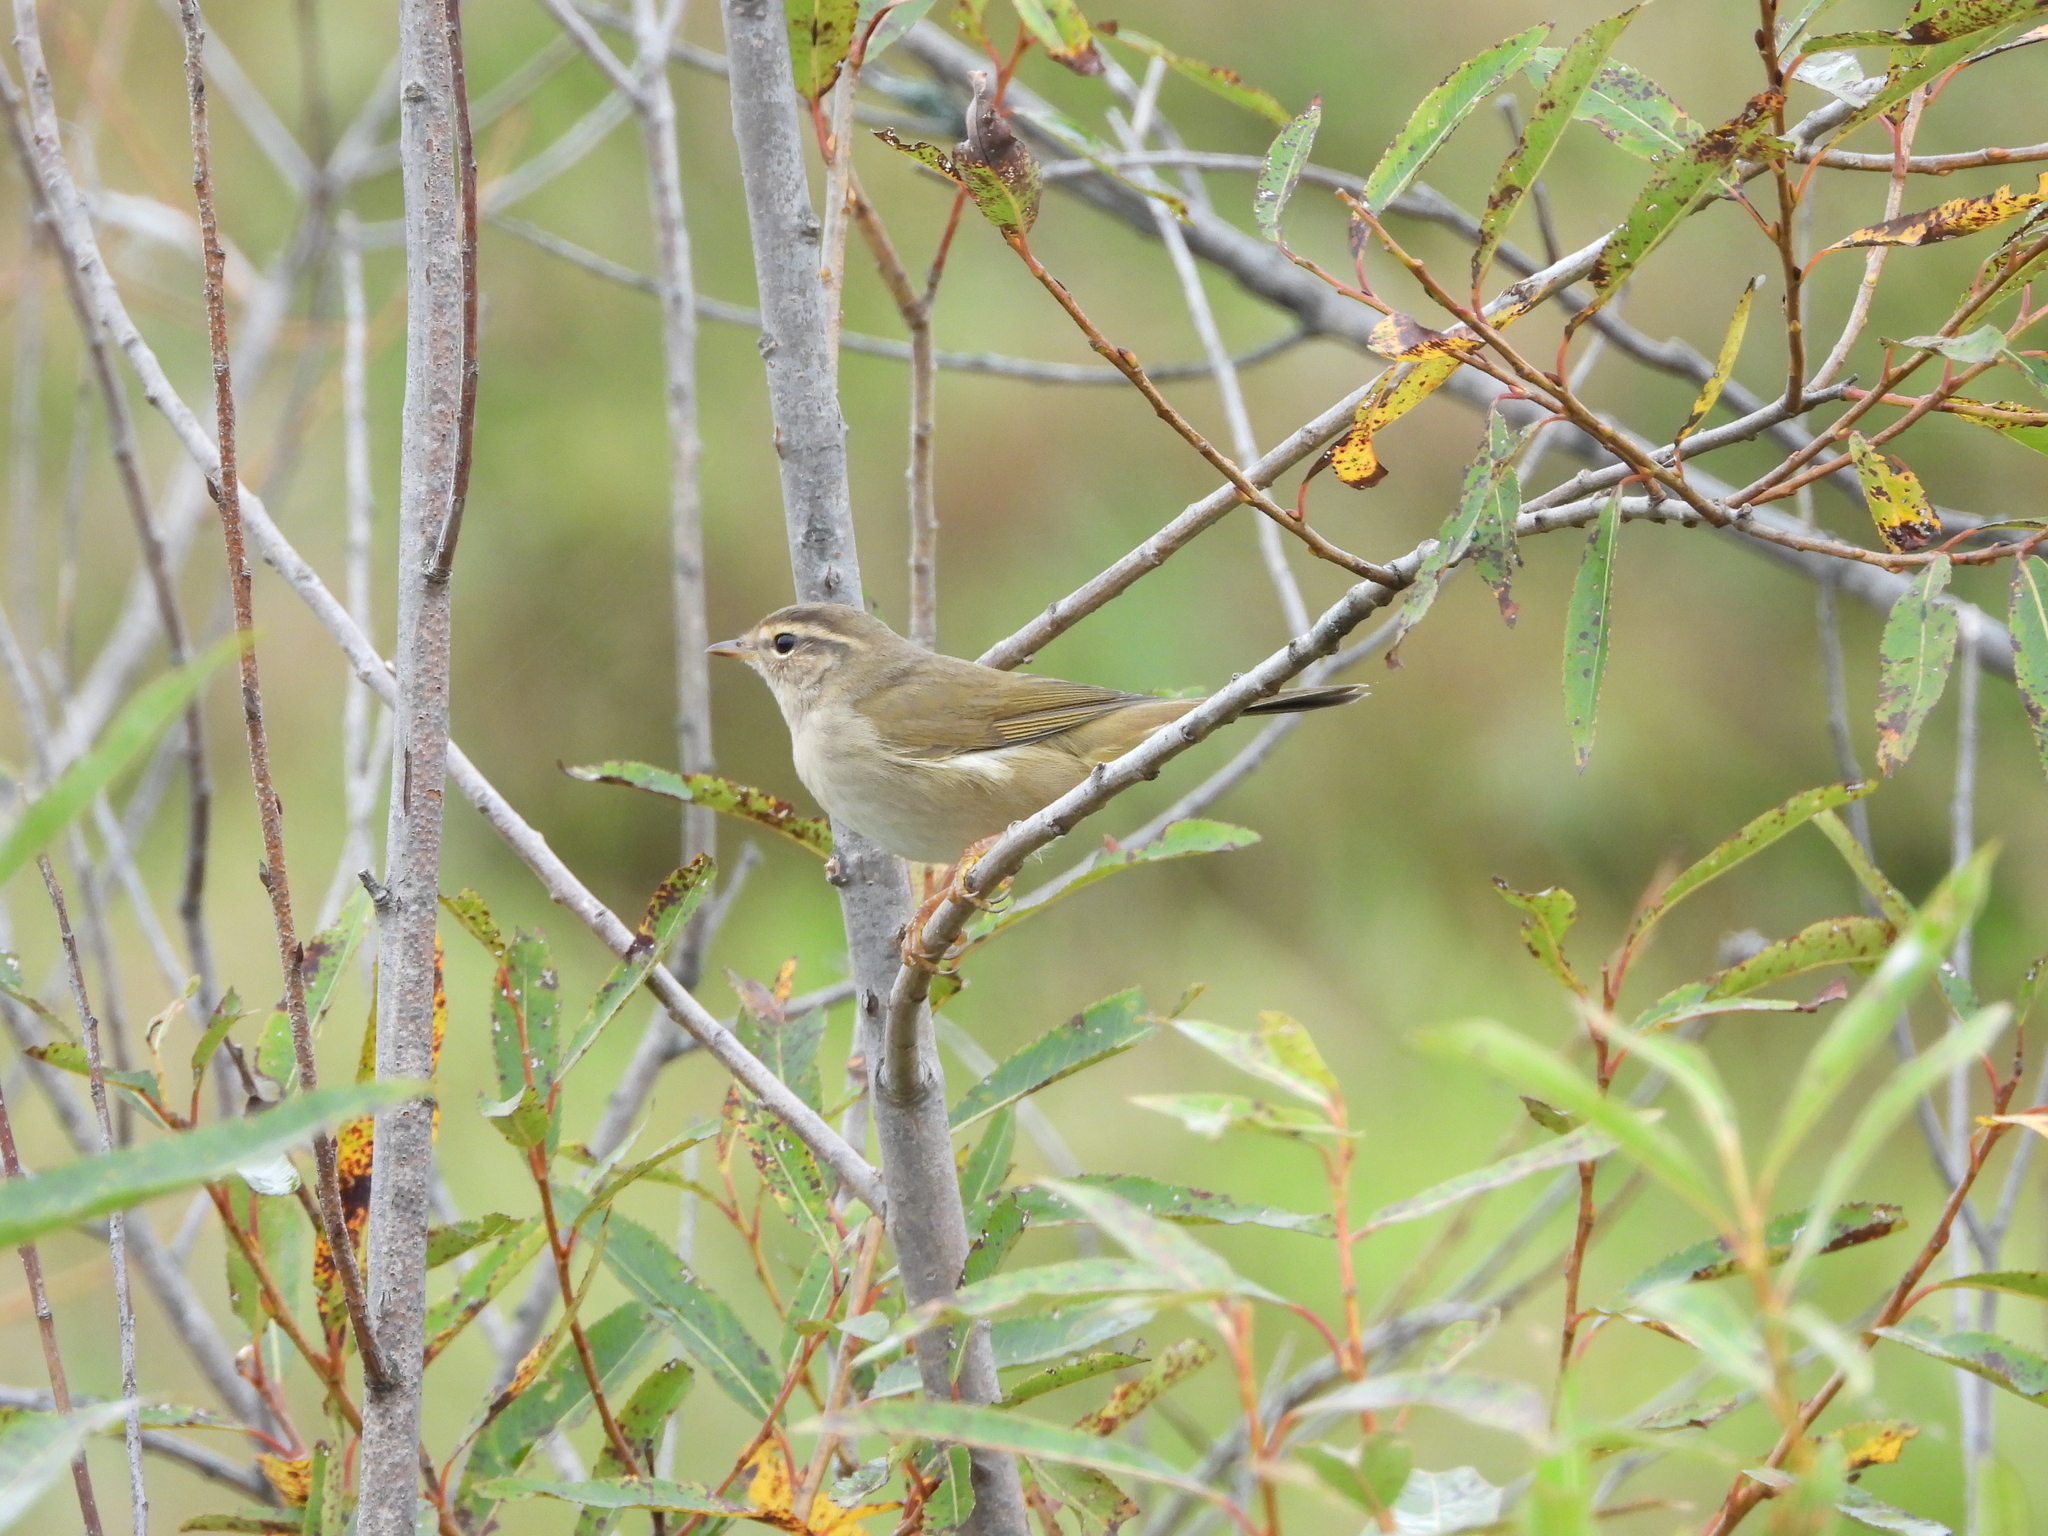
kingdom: Animalia
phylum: Chordata
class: Aves
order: Passeriformes
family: Phylloscopidae
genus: Phylloscopus
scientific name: Phylloscopus schwarzi
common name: Radde's warbler
